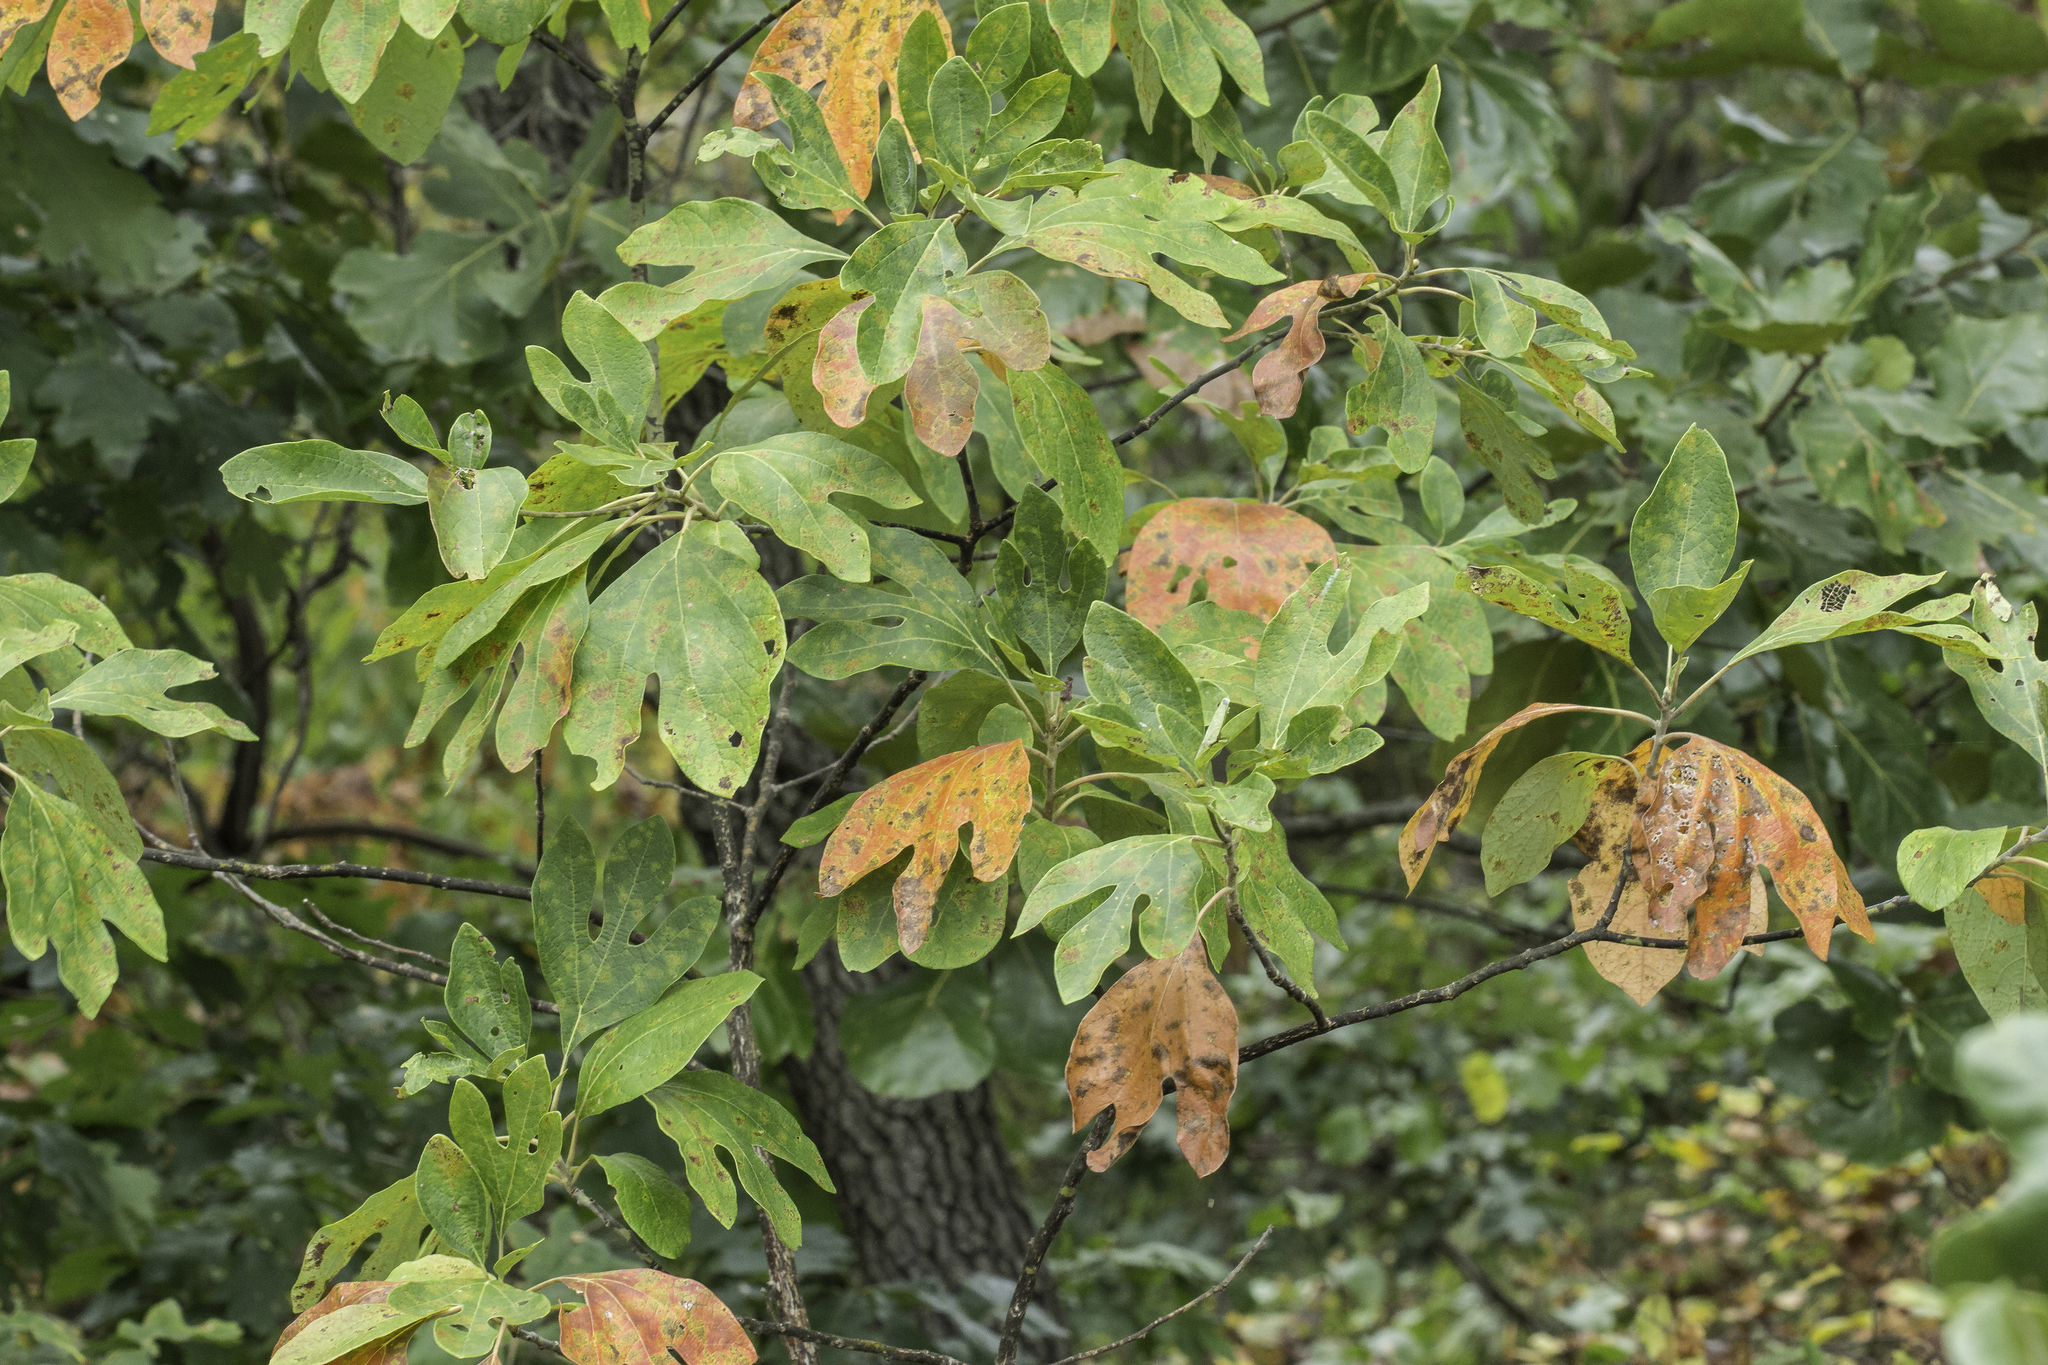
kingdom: Plantae
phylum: Tracheophyta
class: Magnoliopsida
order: Laurales
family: Lauraceae
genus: Sassafras
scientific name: Sassafras albidum
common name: Sassafras
